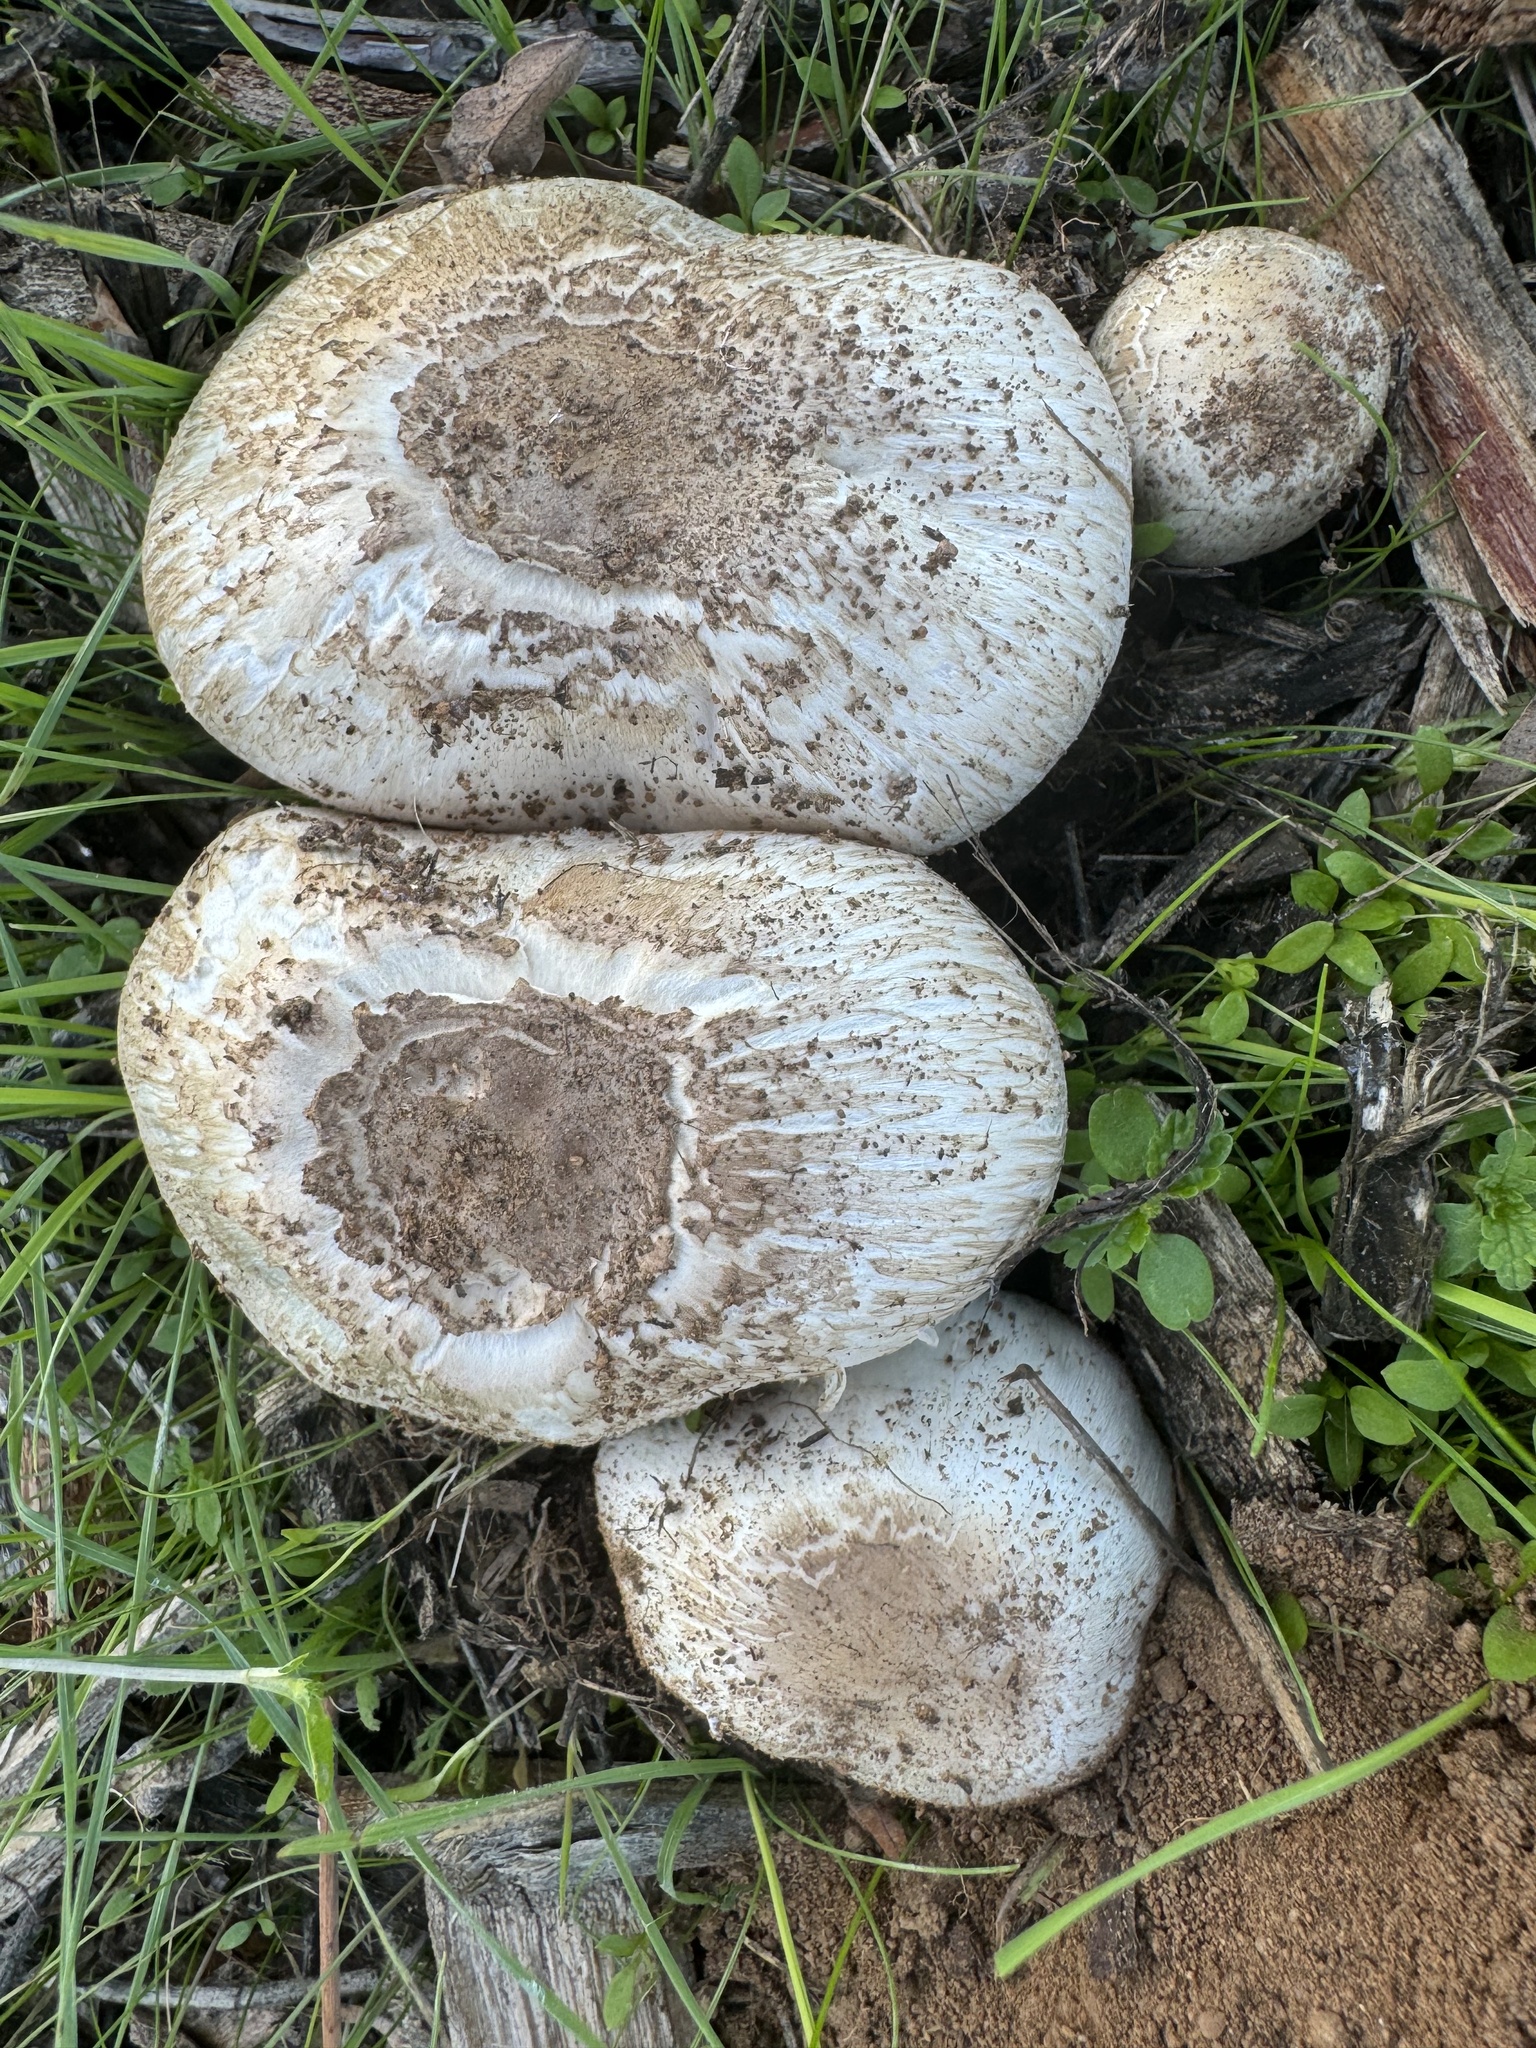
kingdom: Fungi
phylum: Basidiomycota
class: Agaricomycetes
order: Agaricales
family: Agaricaceae
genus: Agaricus
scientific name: Agaricus californicus
